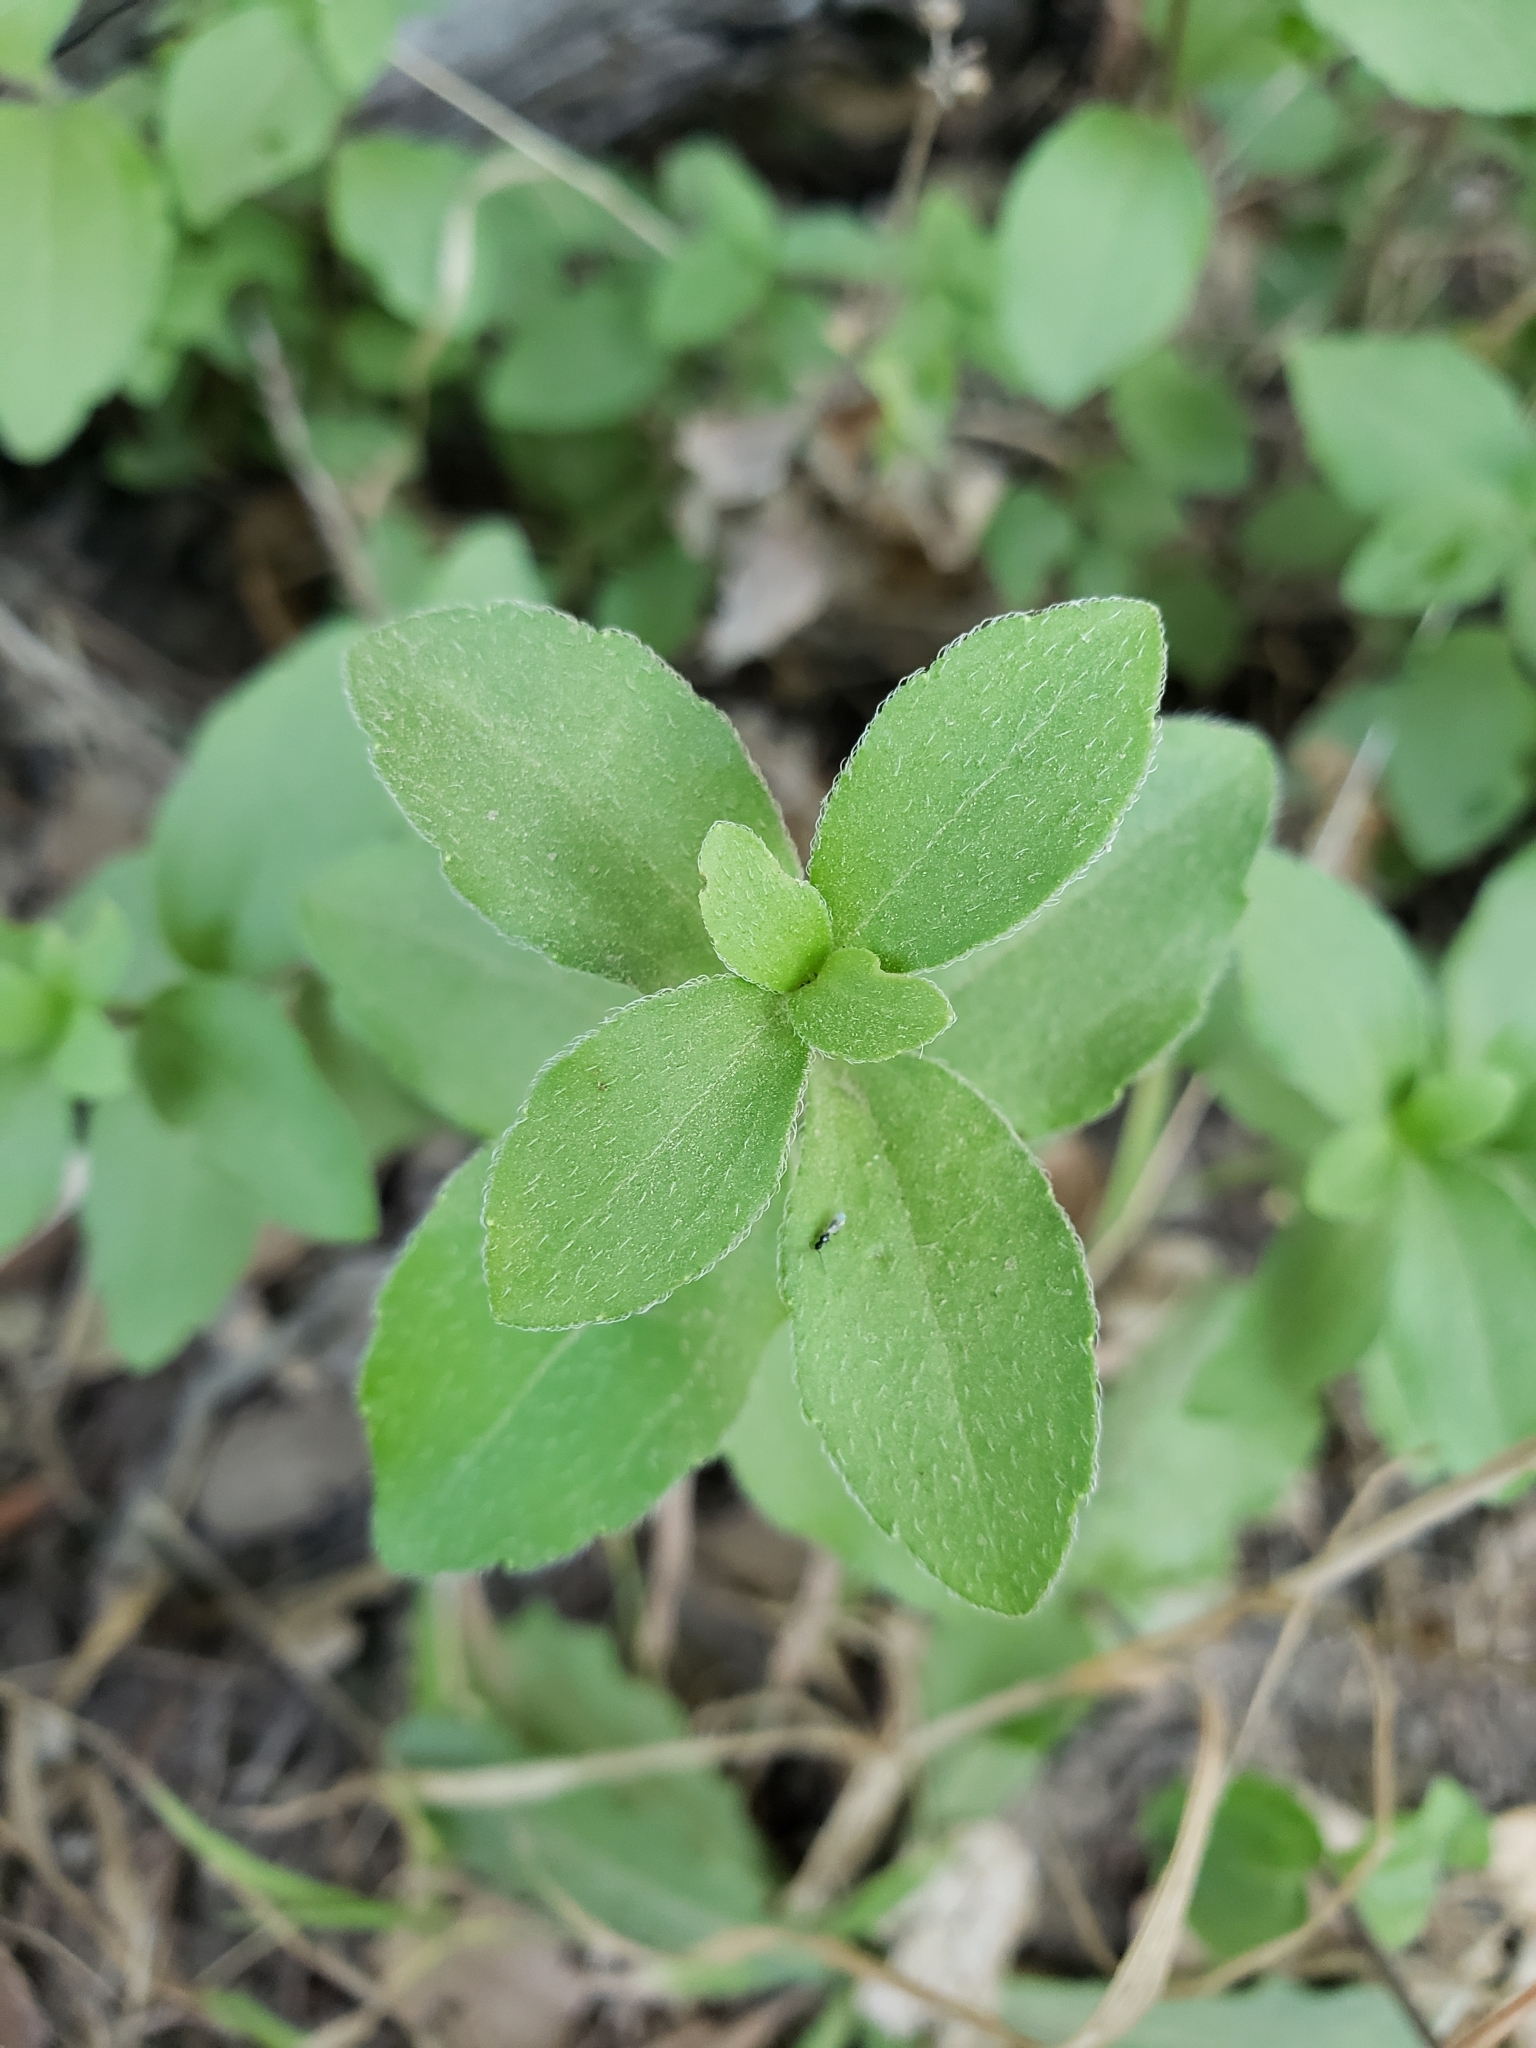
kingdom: Plantae
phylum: Tracheophyta
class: Magnoliopsida
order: Cornales
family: Hydrangeaceae
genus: Whipplea
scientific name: Whipplea modesta
